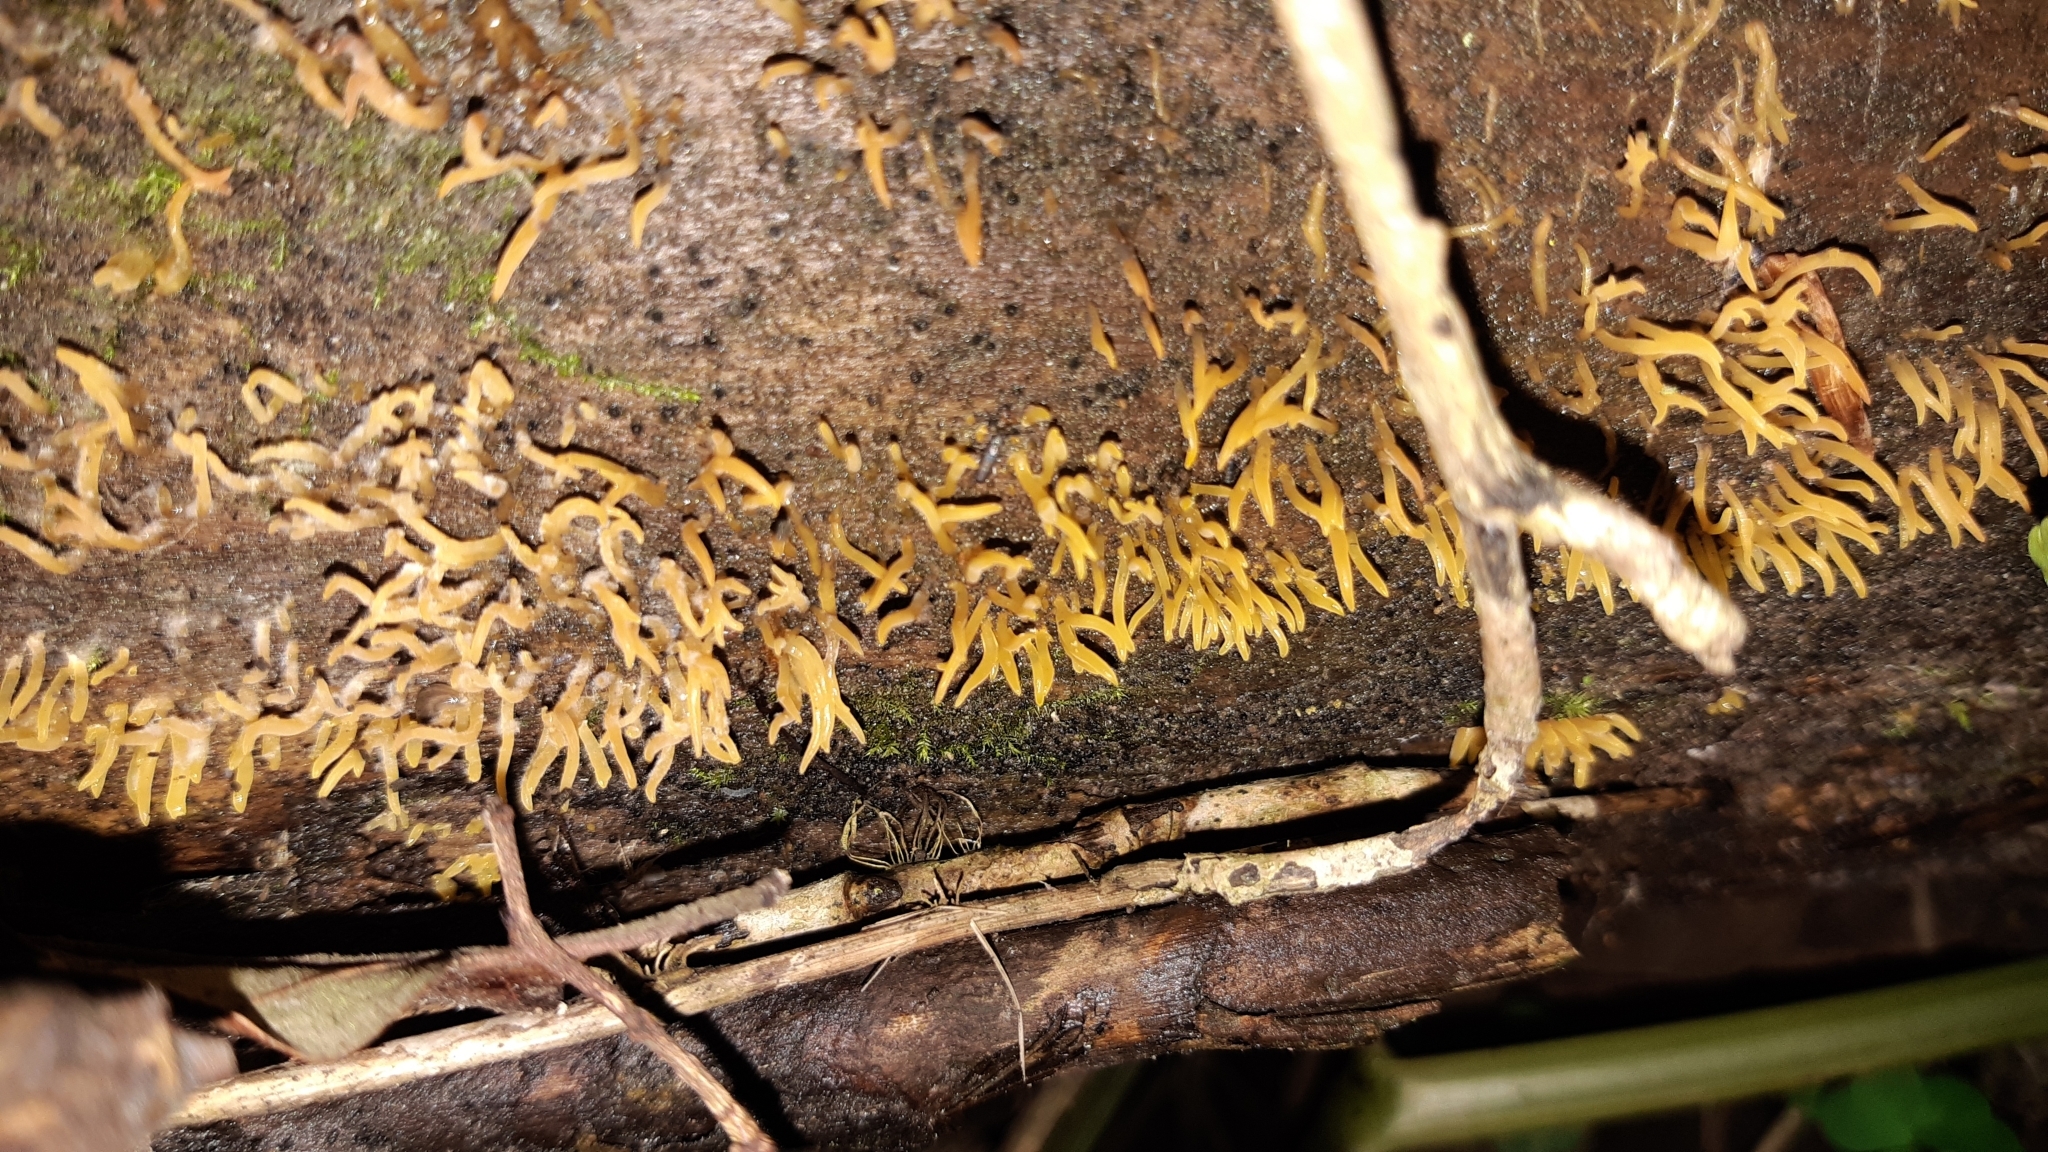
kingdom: Fungi
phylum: Basidiomycota
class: Dacrymycetes
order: Dacrymycetales
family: Dacrymycetaceae
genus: Calocera
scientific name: Calocera cornea
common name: Small stagshorn
